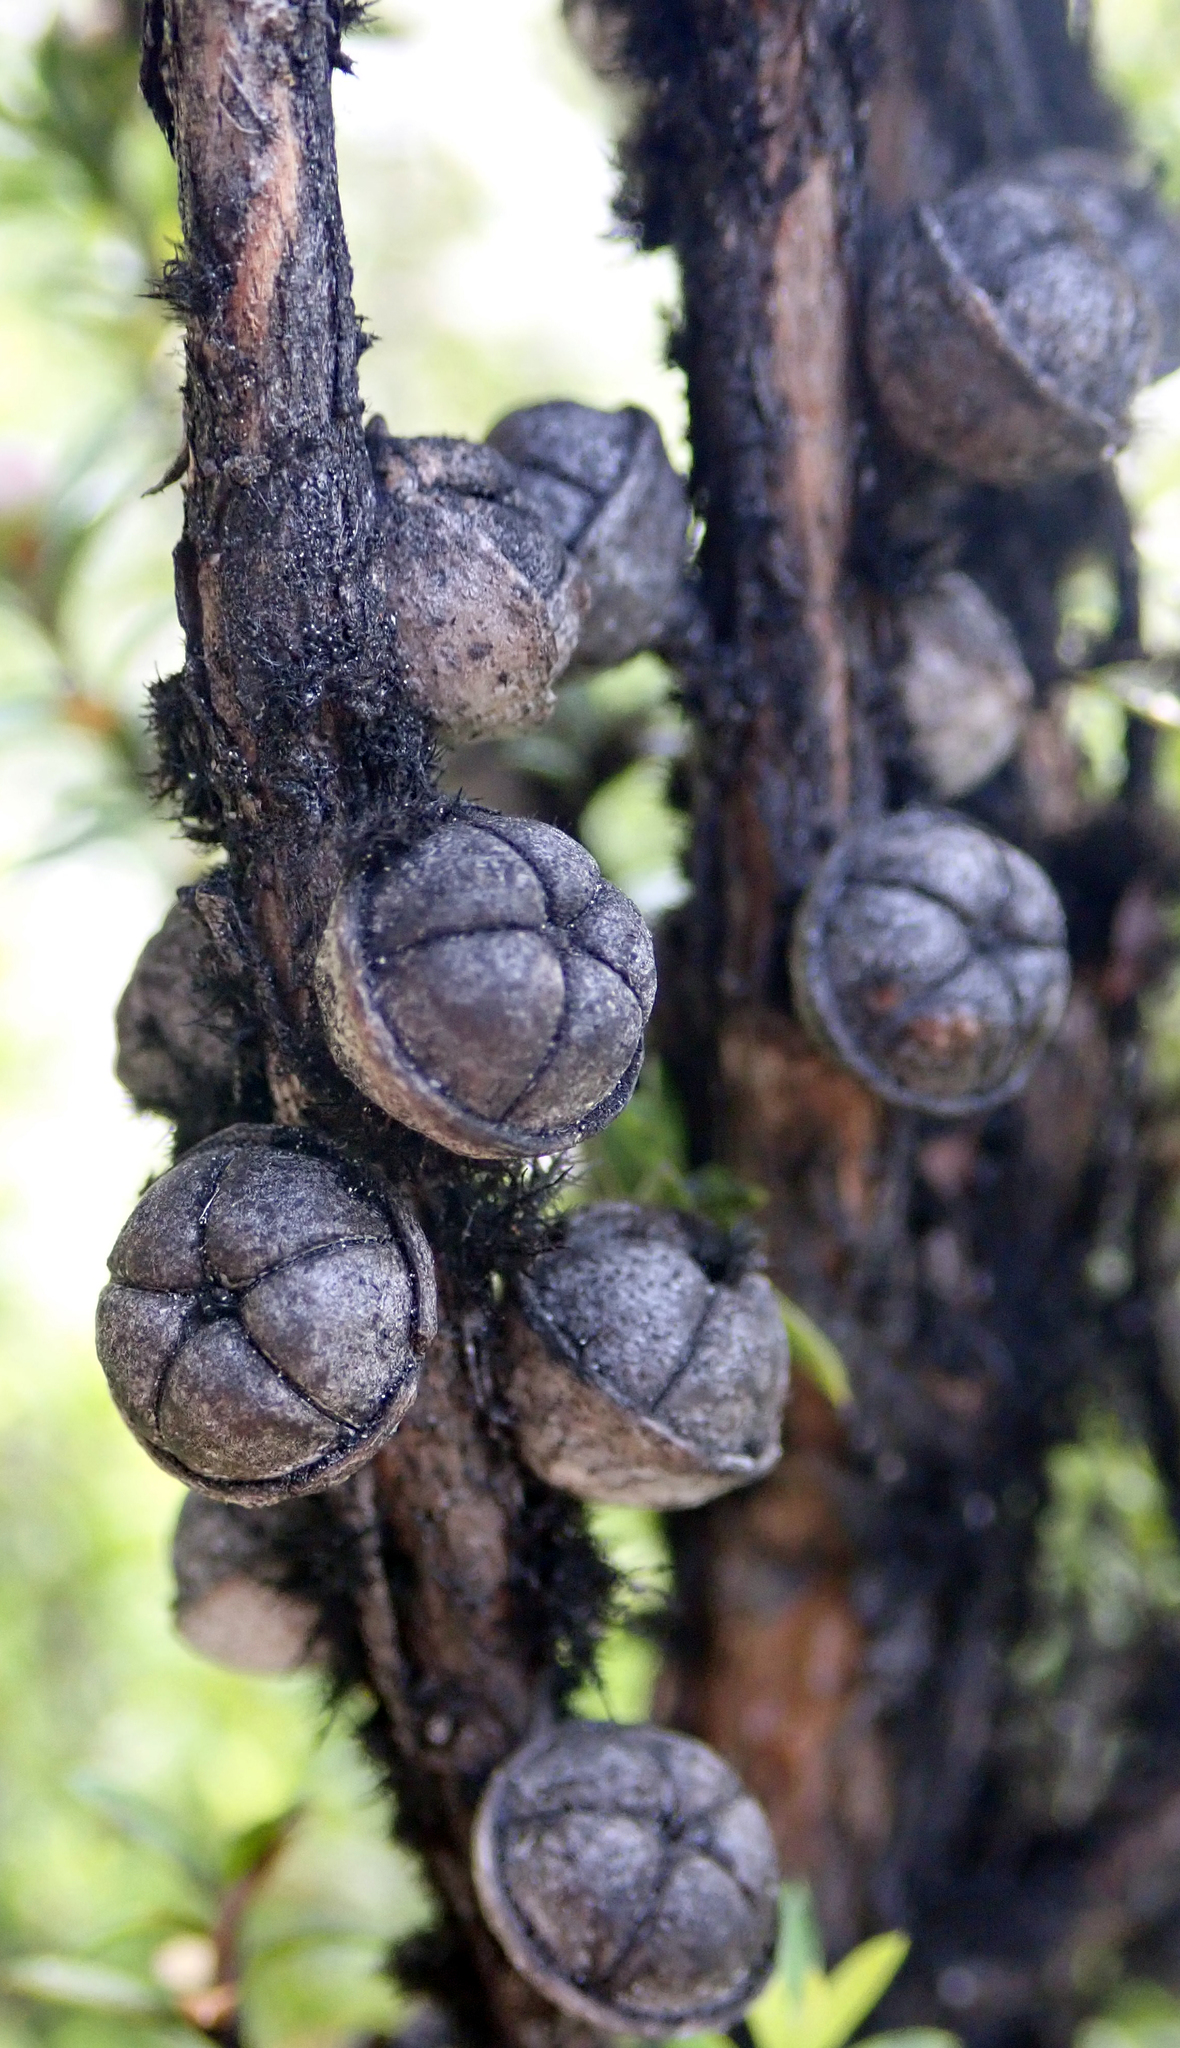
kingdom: Plantae
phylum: Tracheophyta
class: Magnoliopsida
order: Myrtales
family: Myrtaceae
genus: Leptospermum
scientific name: Leptospermum scoparium
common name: Broom tea-tree
